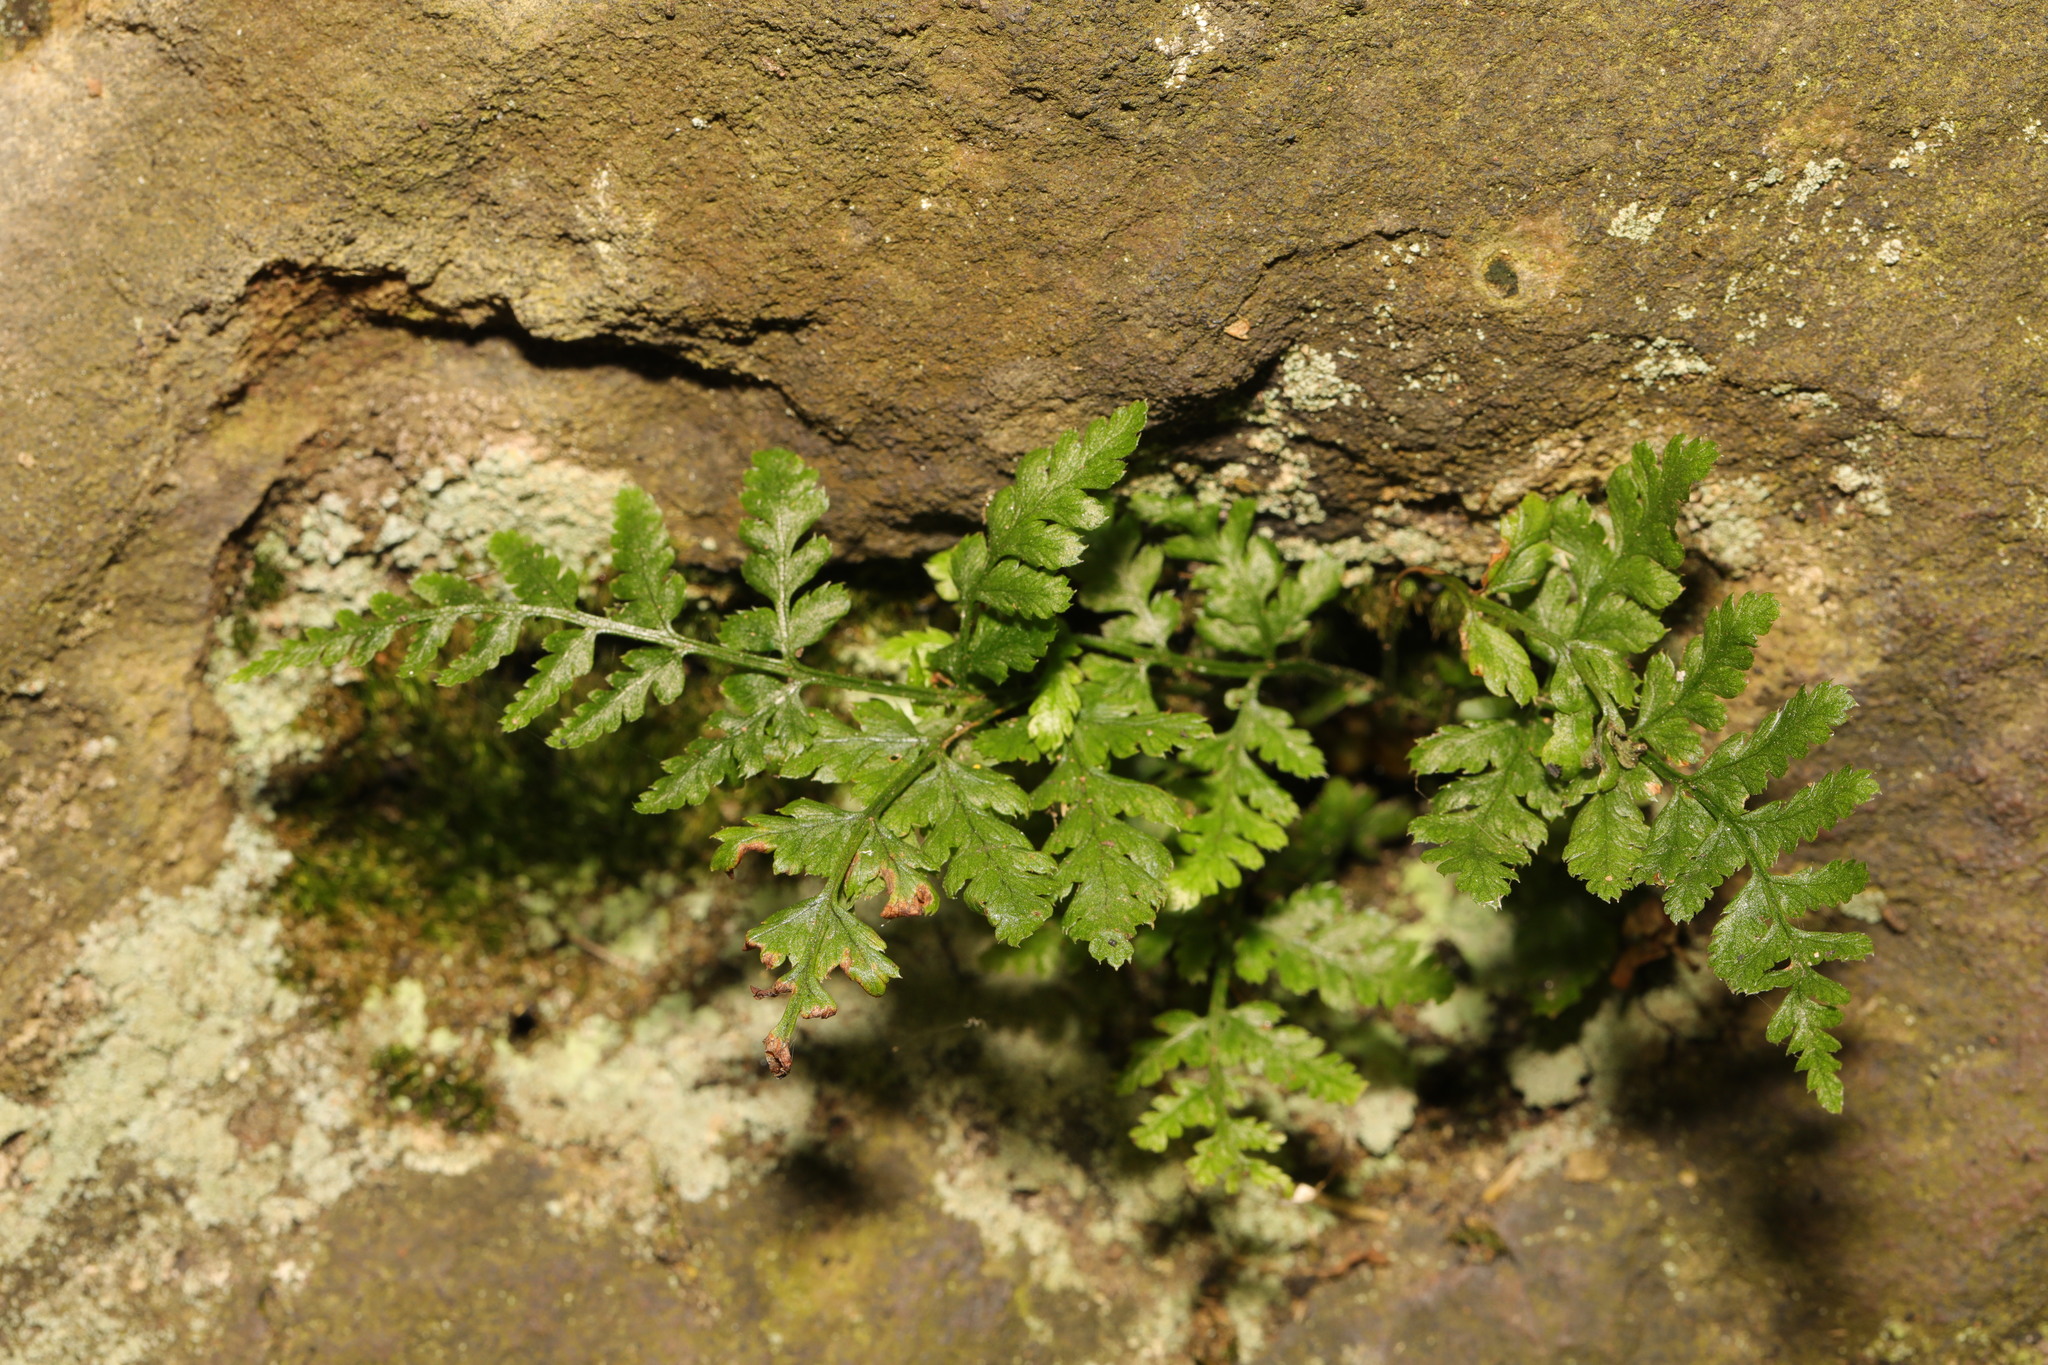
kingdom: Plantae
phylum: Tracheophyta
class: Polypodiopsida
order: Polypodiales
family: Dryopteridaceae
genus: Dryopteris
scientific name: Dryopteris dilatata
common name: Broad buckler-fern
